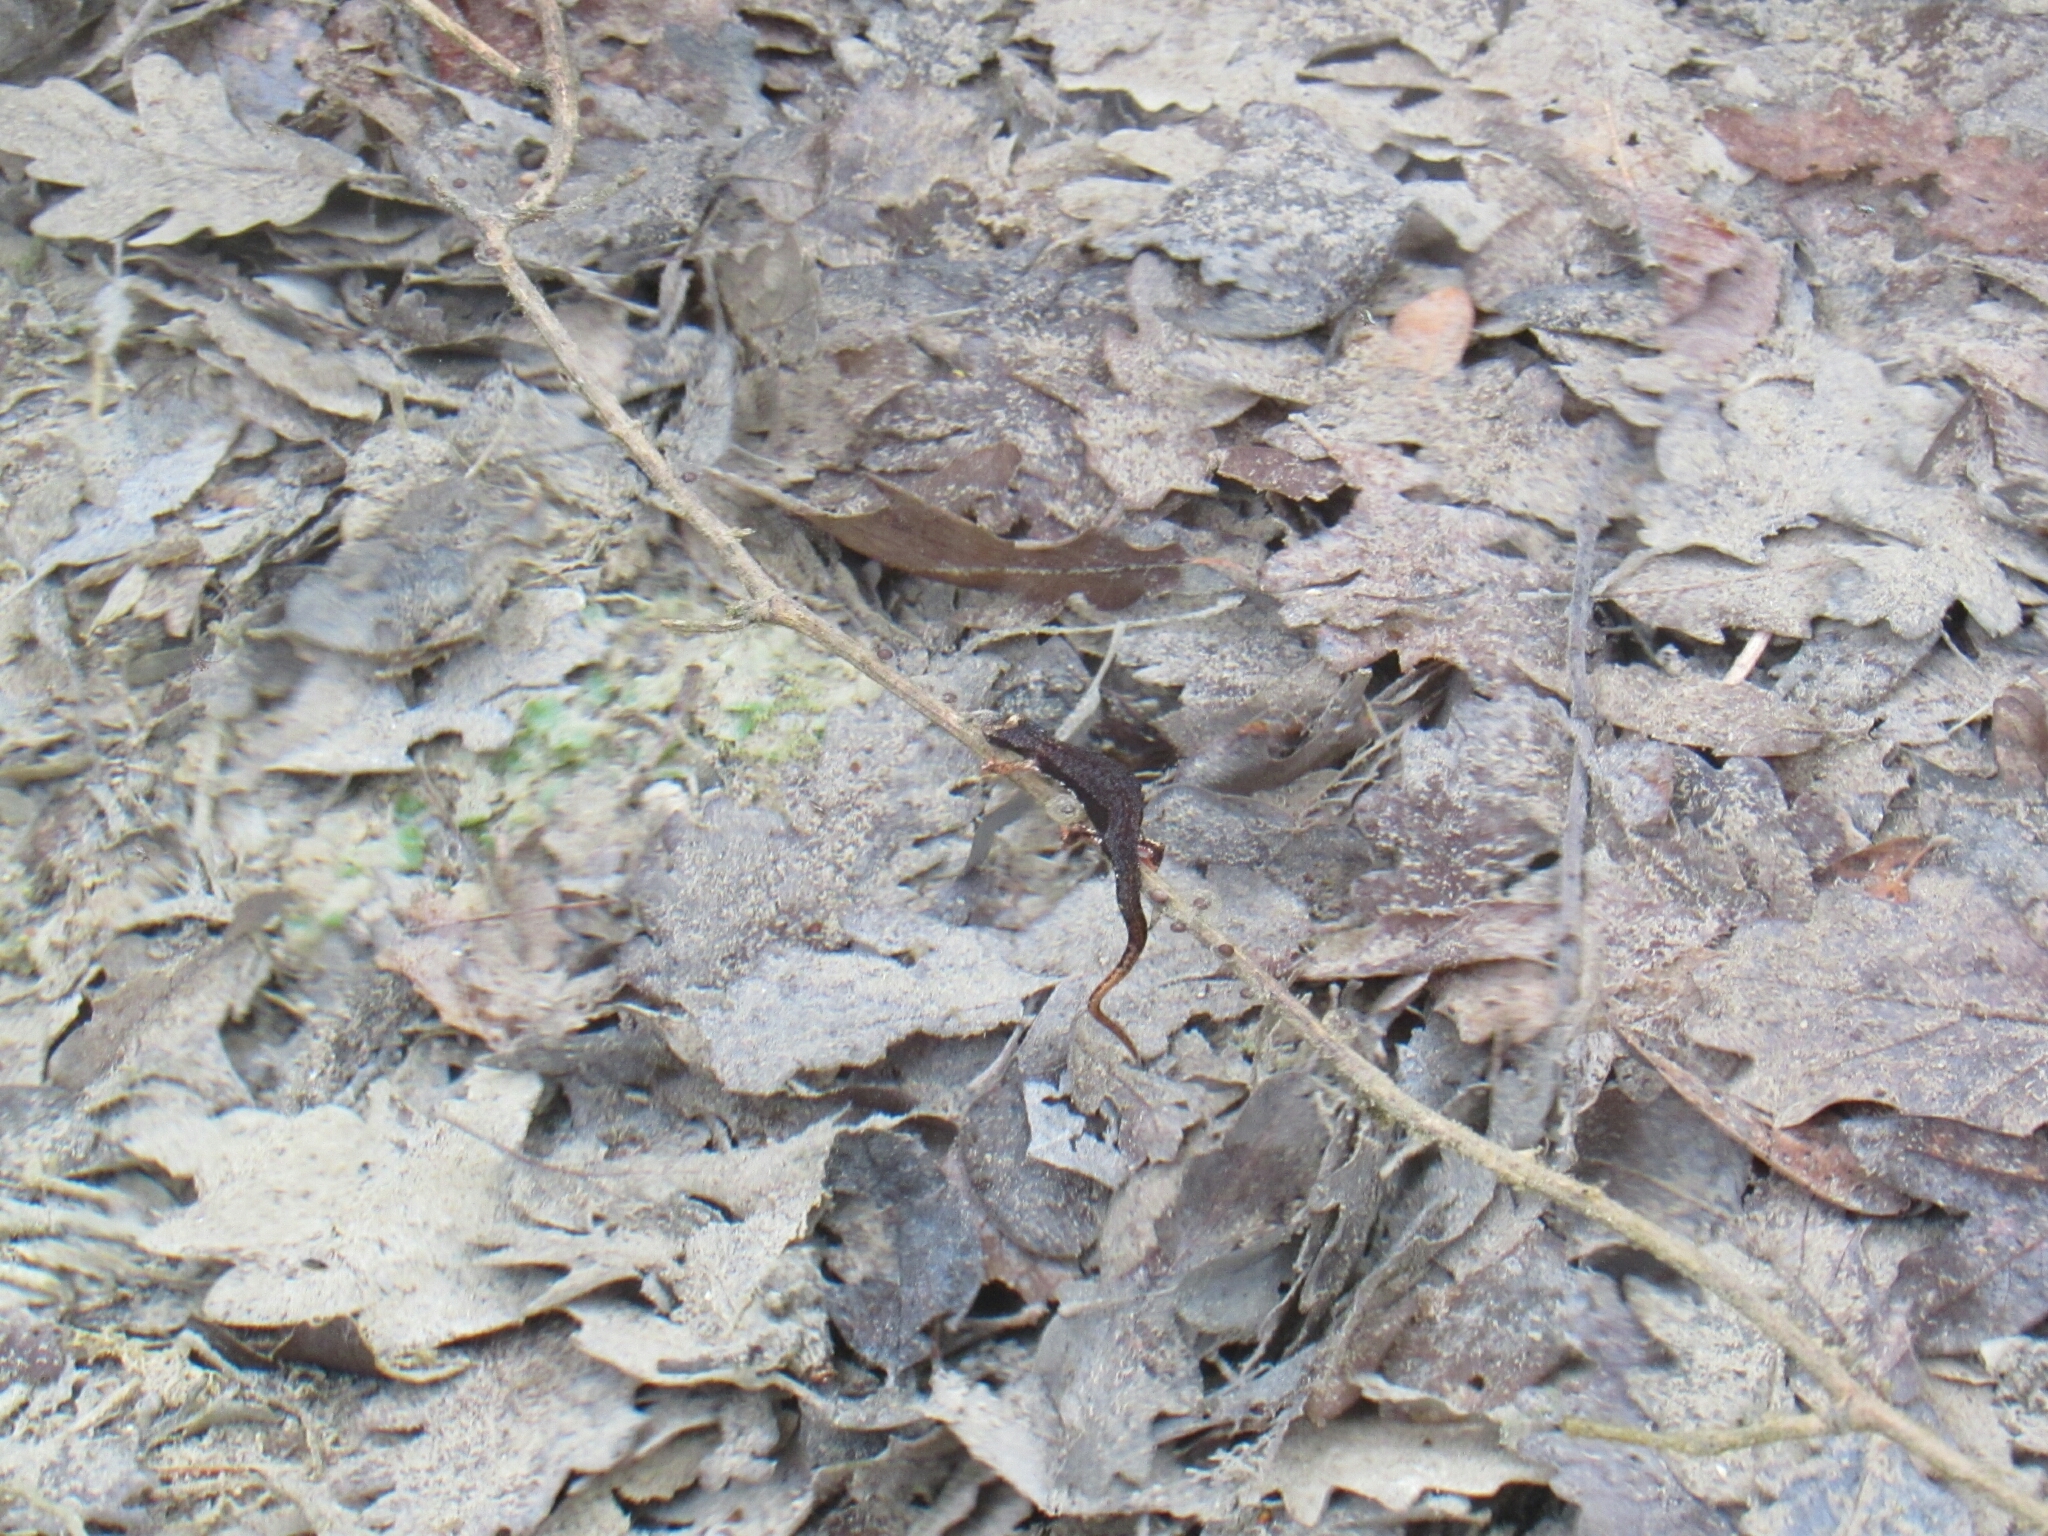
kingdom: Animalia
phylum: Chordata
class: Amphibia
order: Caudata
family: Salamandridae
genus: Salamandrina
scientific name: Salamandrina perspicillata
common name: Northern spectacled salamander
